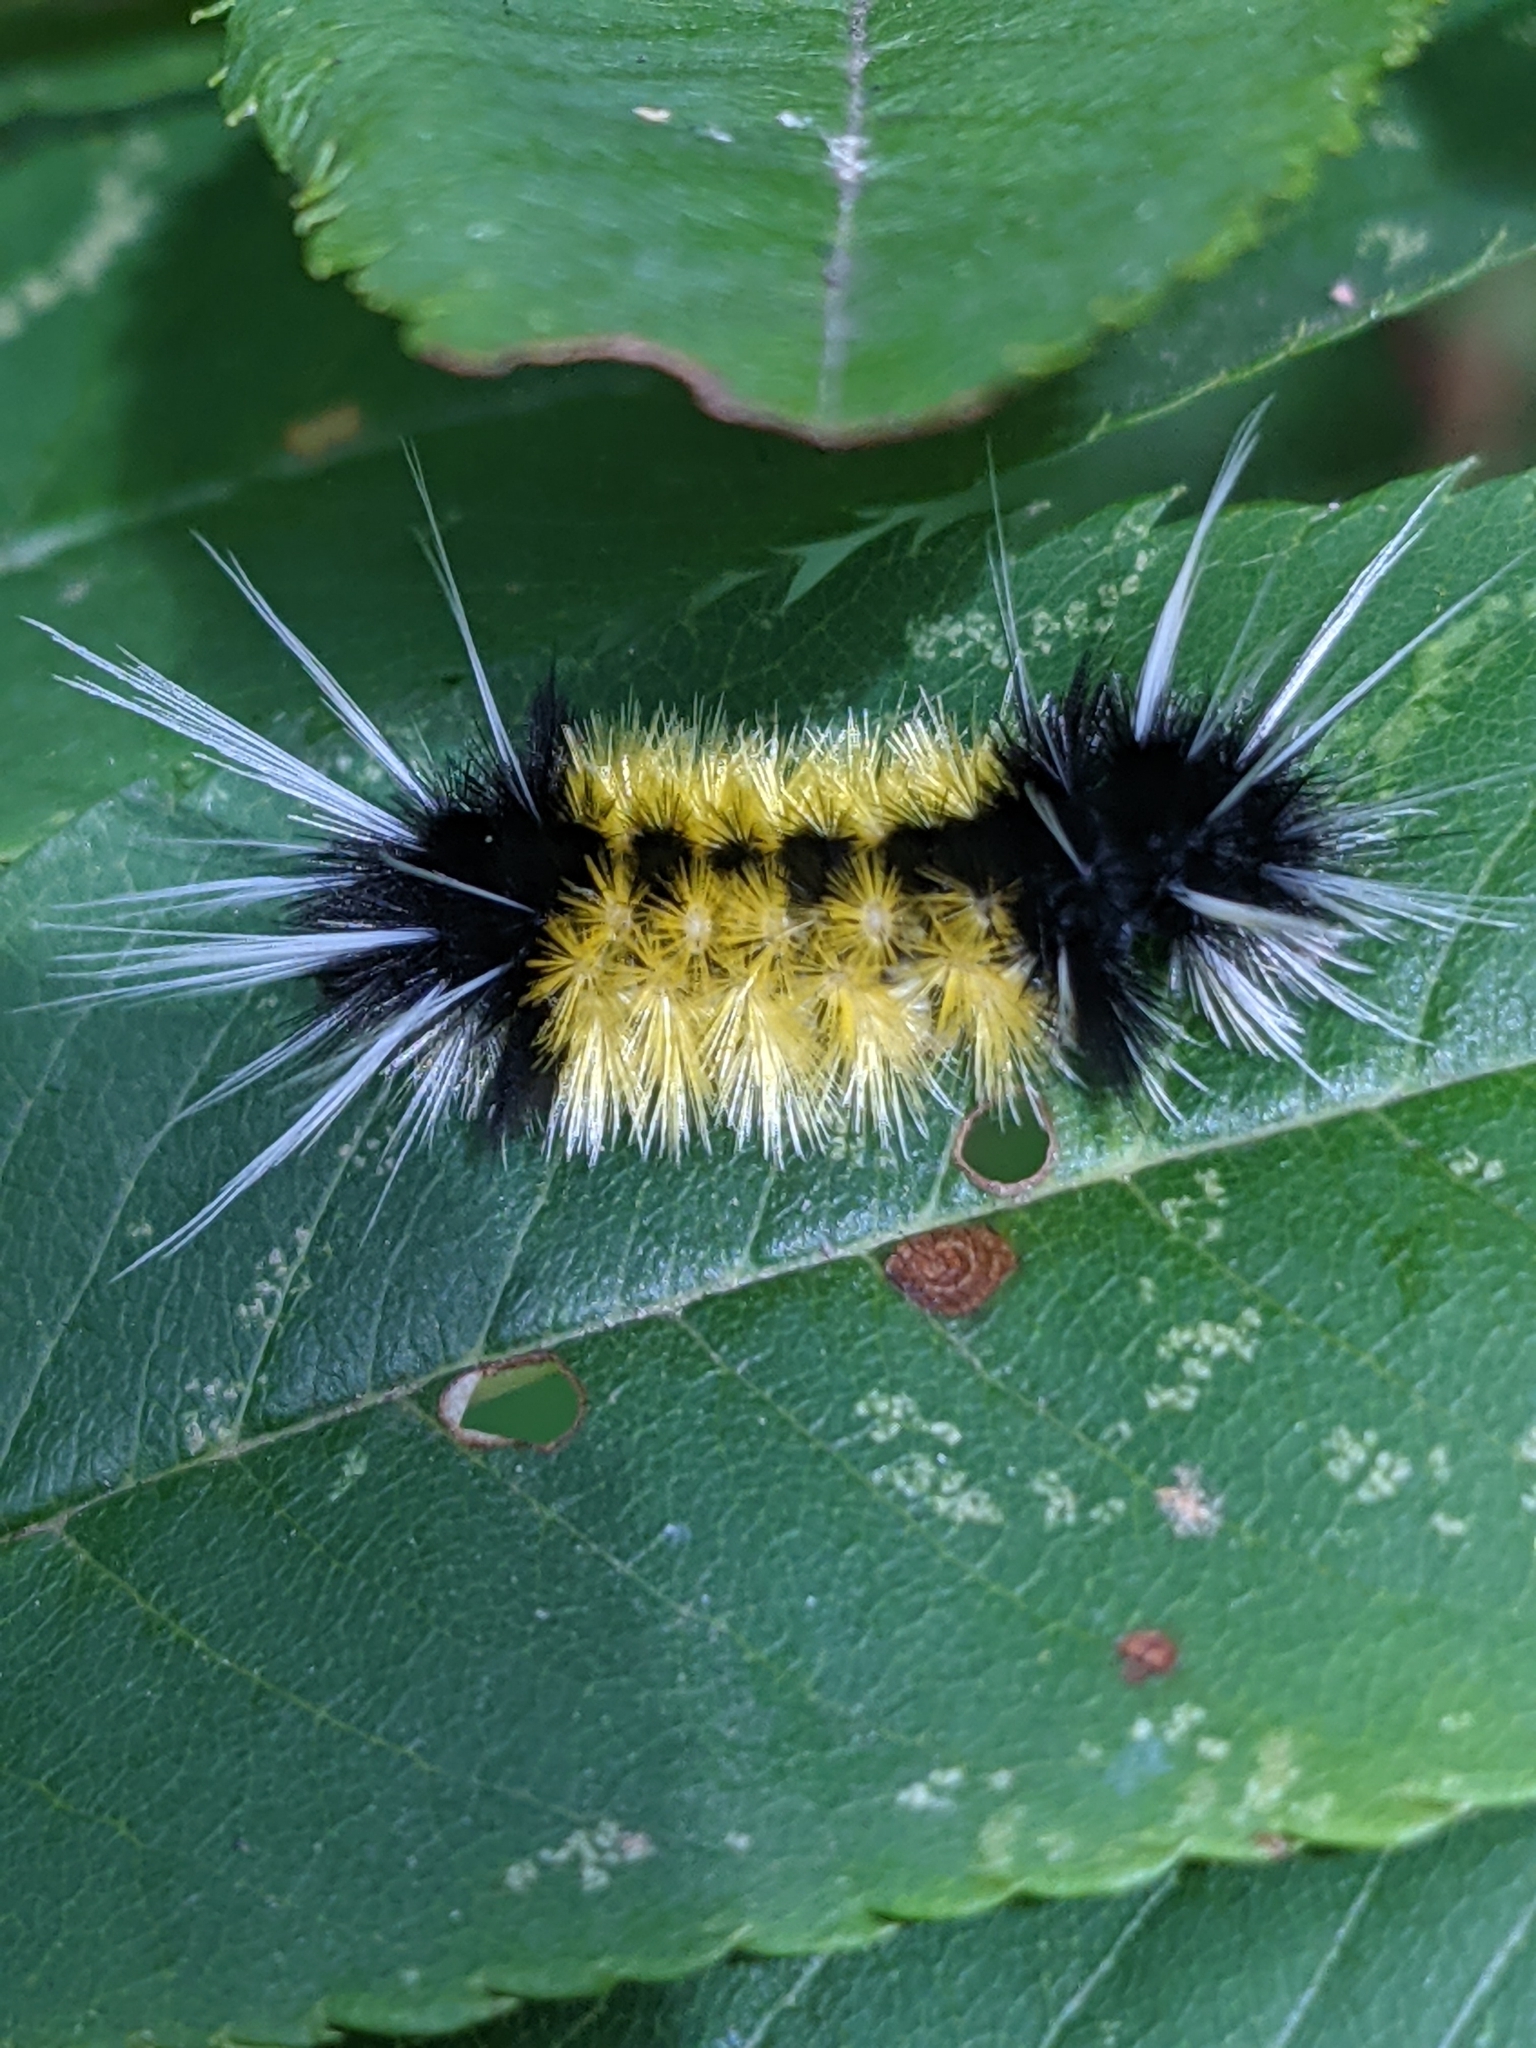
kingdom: Animalia
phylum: Arthropoda
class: Insecta
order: Lepidoptera
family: Erebidae
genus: Lophocampa
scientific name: Lophocampa maculata
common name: Spotted tussock moth
